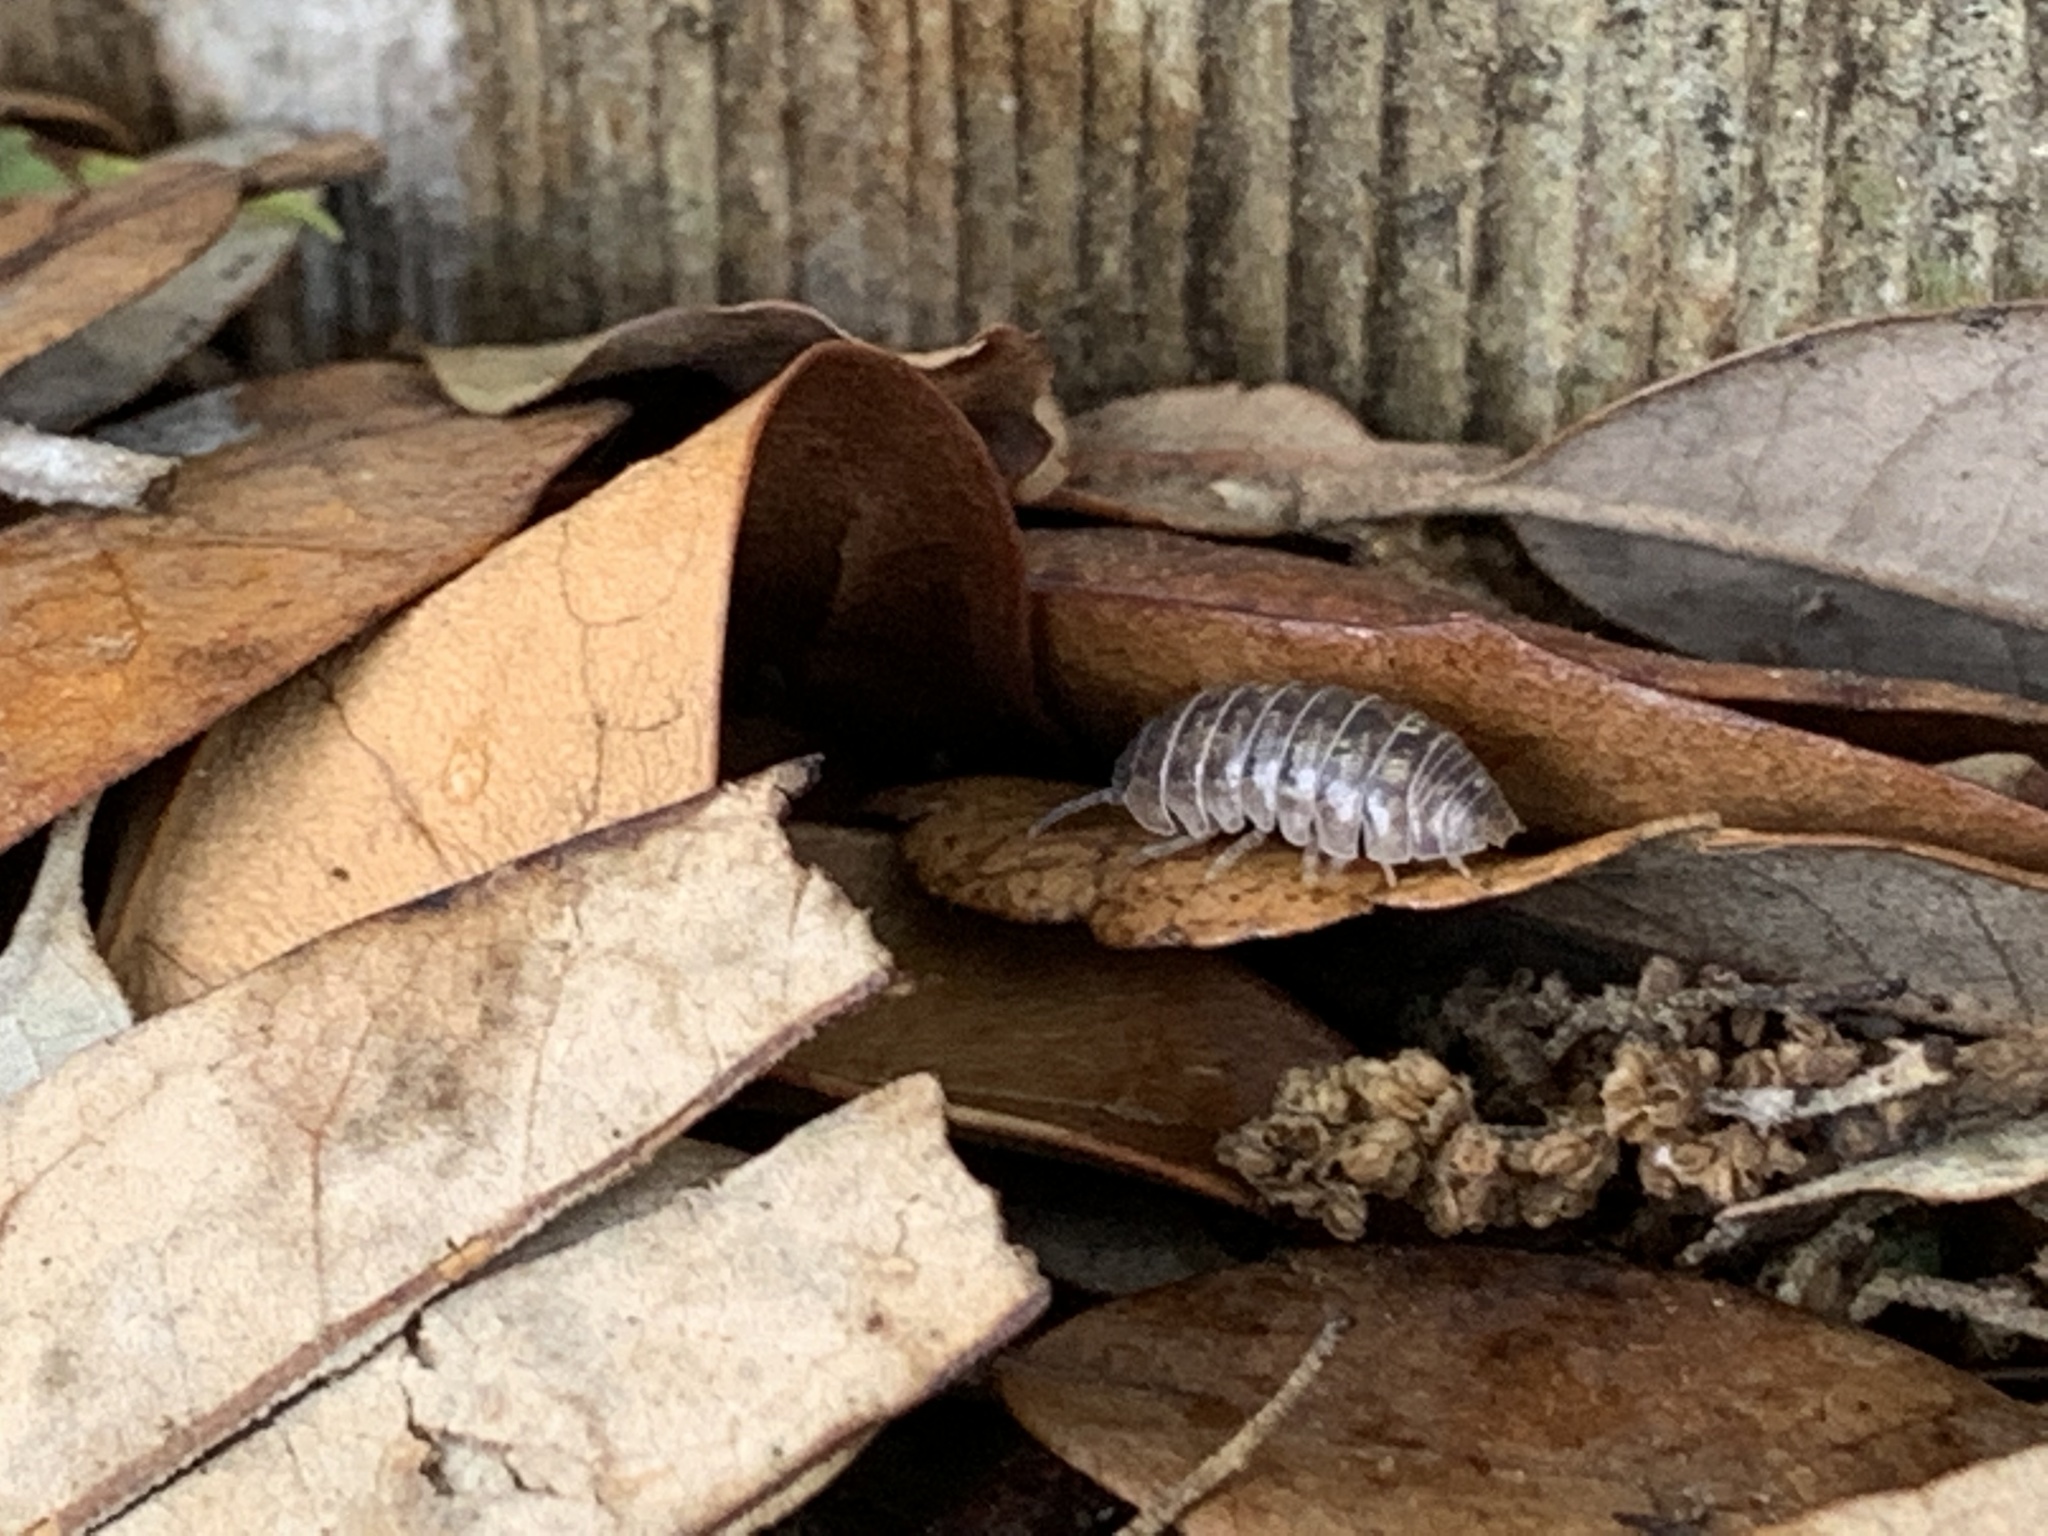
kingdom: Animalia
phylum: Arthropoda
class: Malacostraca
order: Isopoda
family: Armadillidiidae
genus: Armadillidium
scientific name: Armadillidium vulgare
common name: Common pill woodlouse
